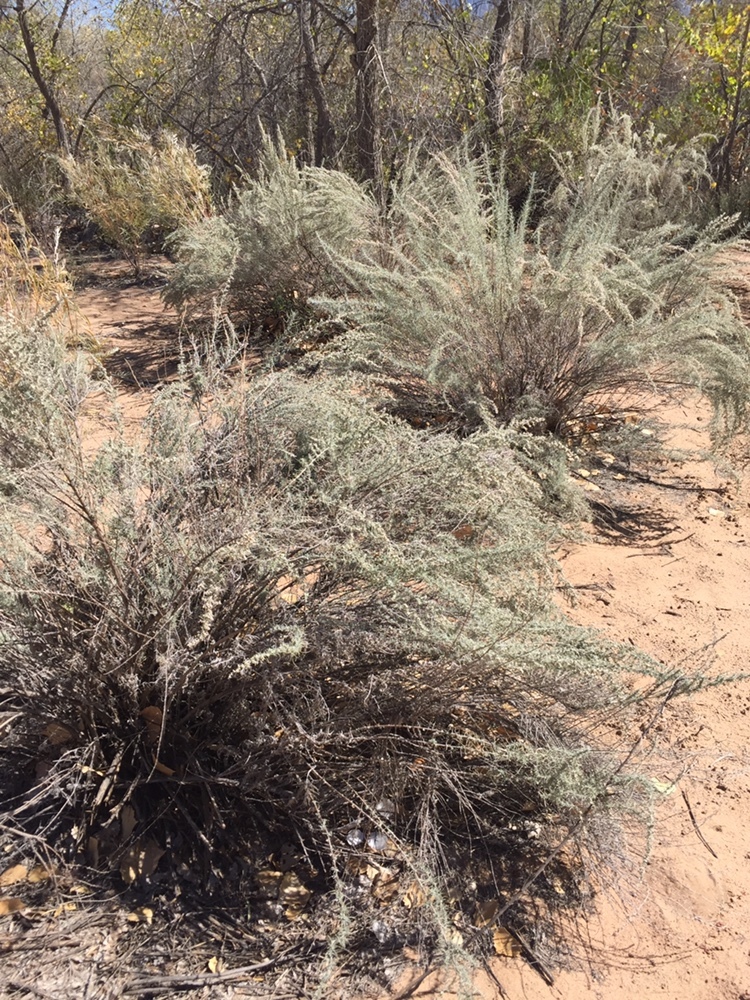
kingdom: Plantae
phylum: Tracheophyta
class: Magnoliopsida
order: Asterales
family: Asteraceae
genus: Artemisia
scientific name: Artemisia filifolia
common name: Sand-sage
